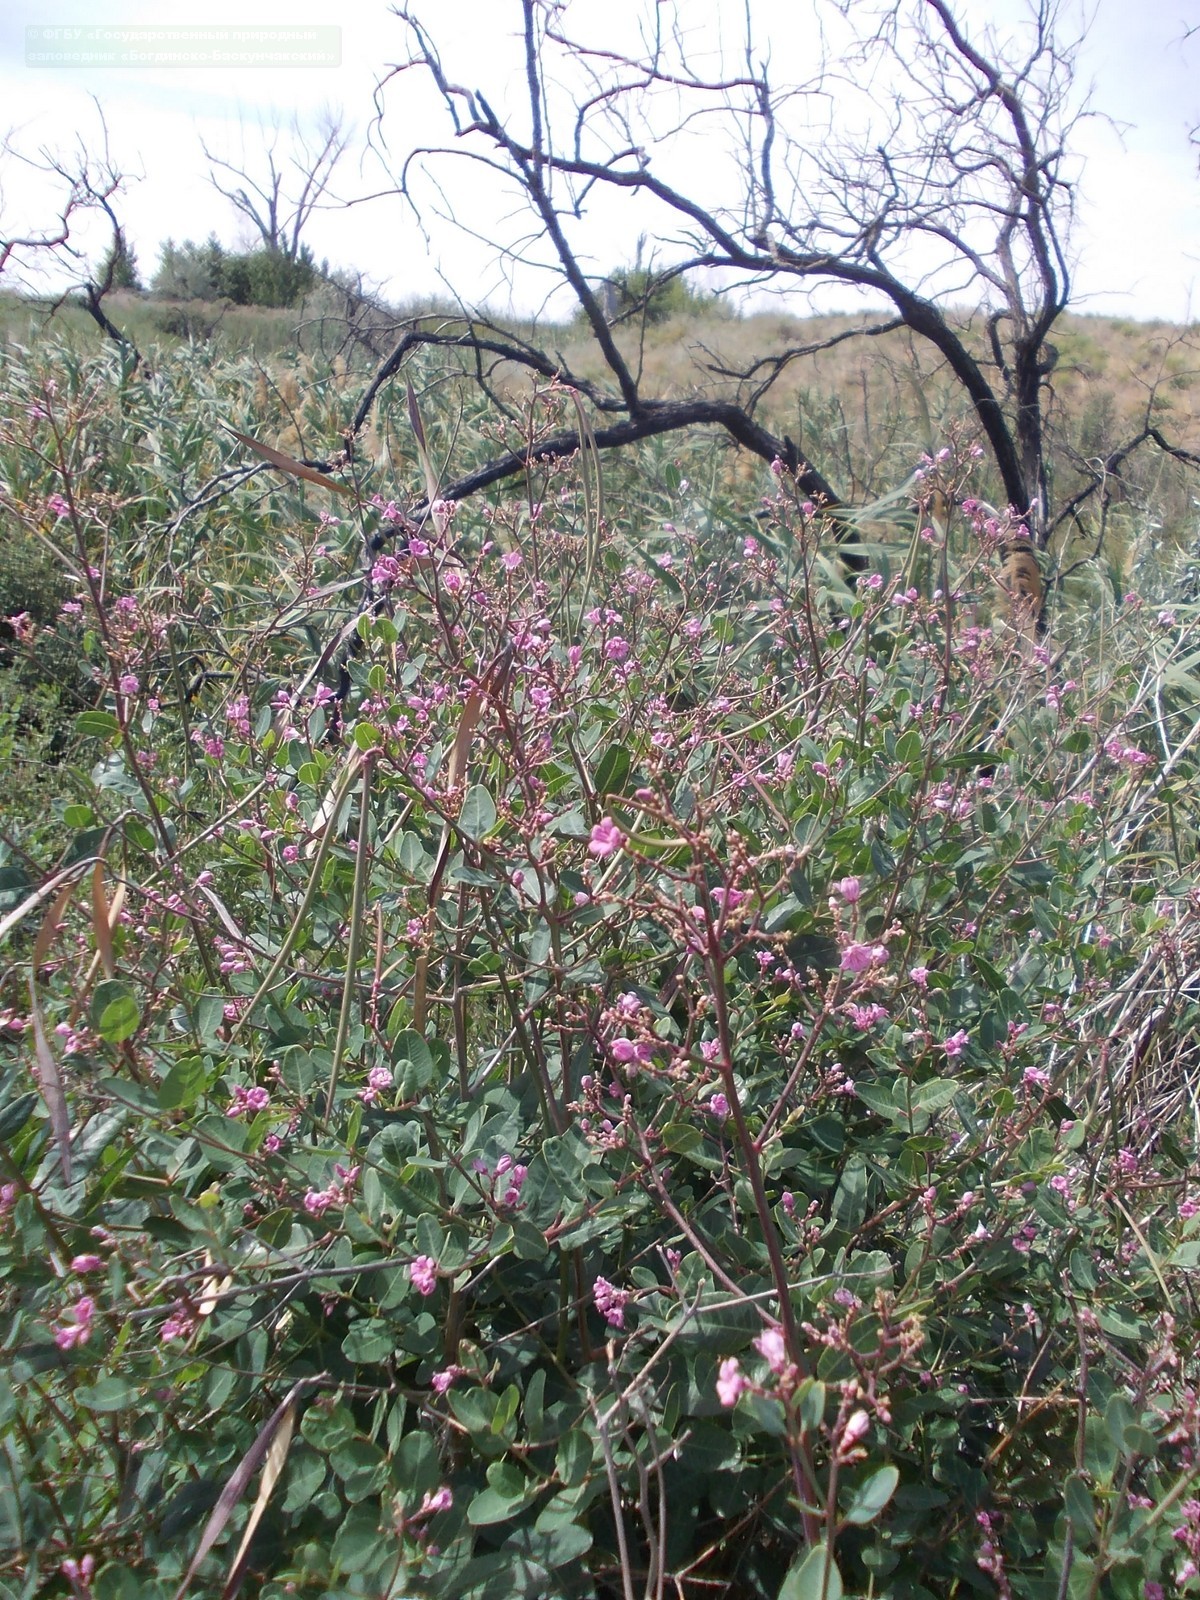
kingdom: Plantae
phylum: Tracheophyta
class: Magnoliopsida
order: Gentianales
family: Apocynaceae
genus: Poacynum
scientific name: Poacynum venetum
